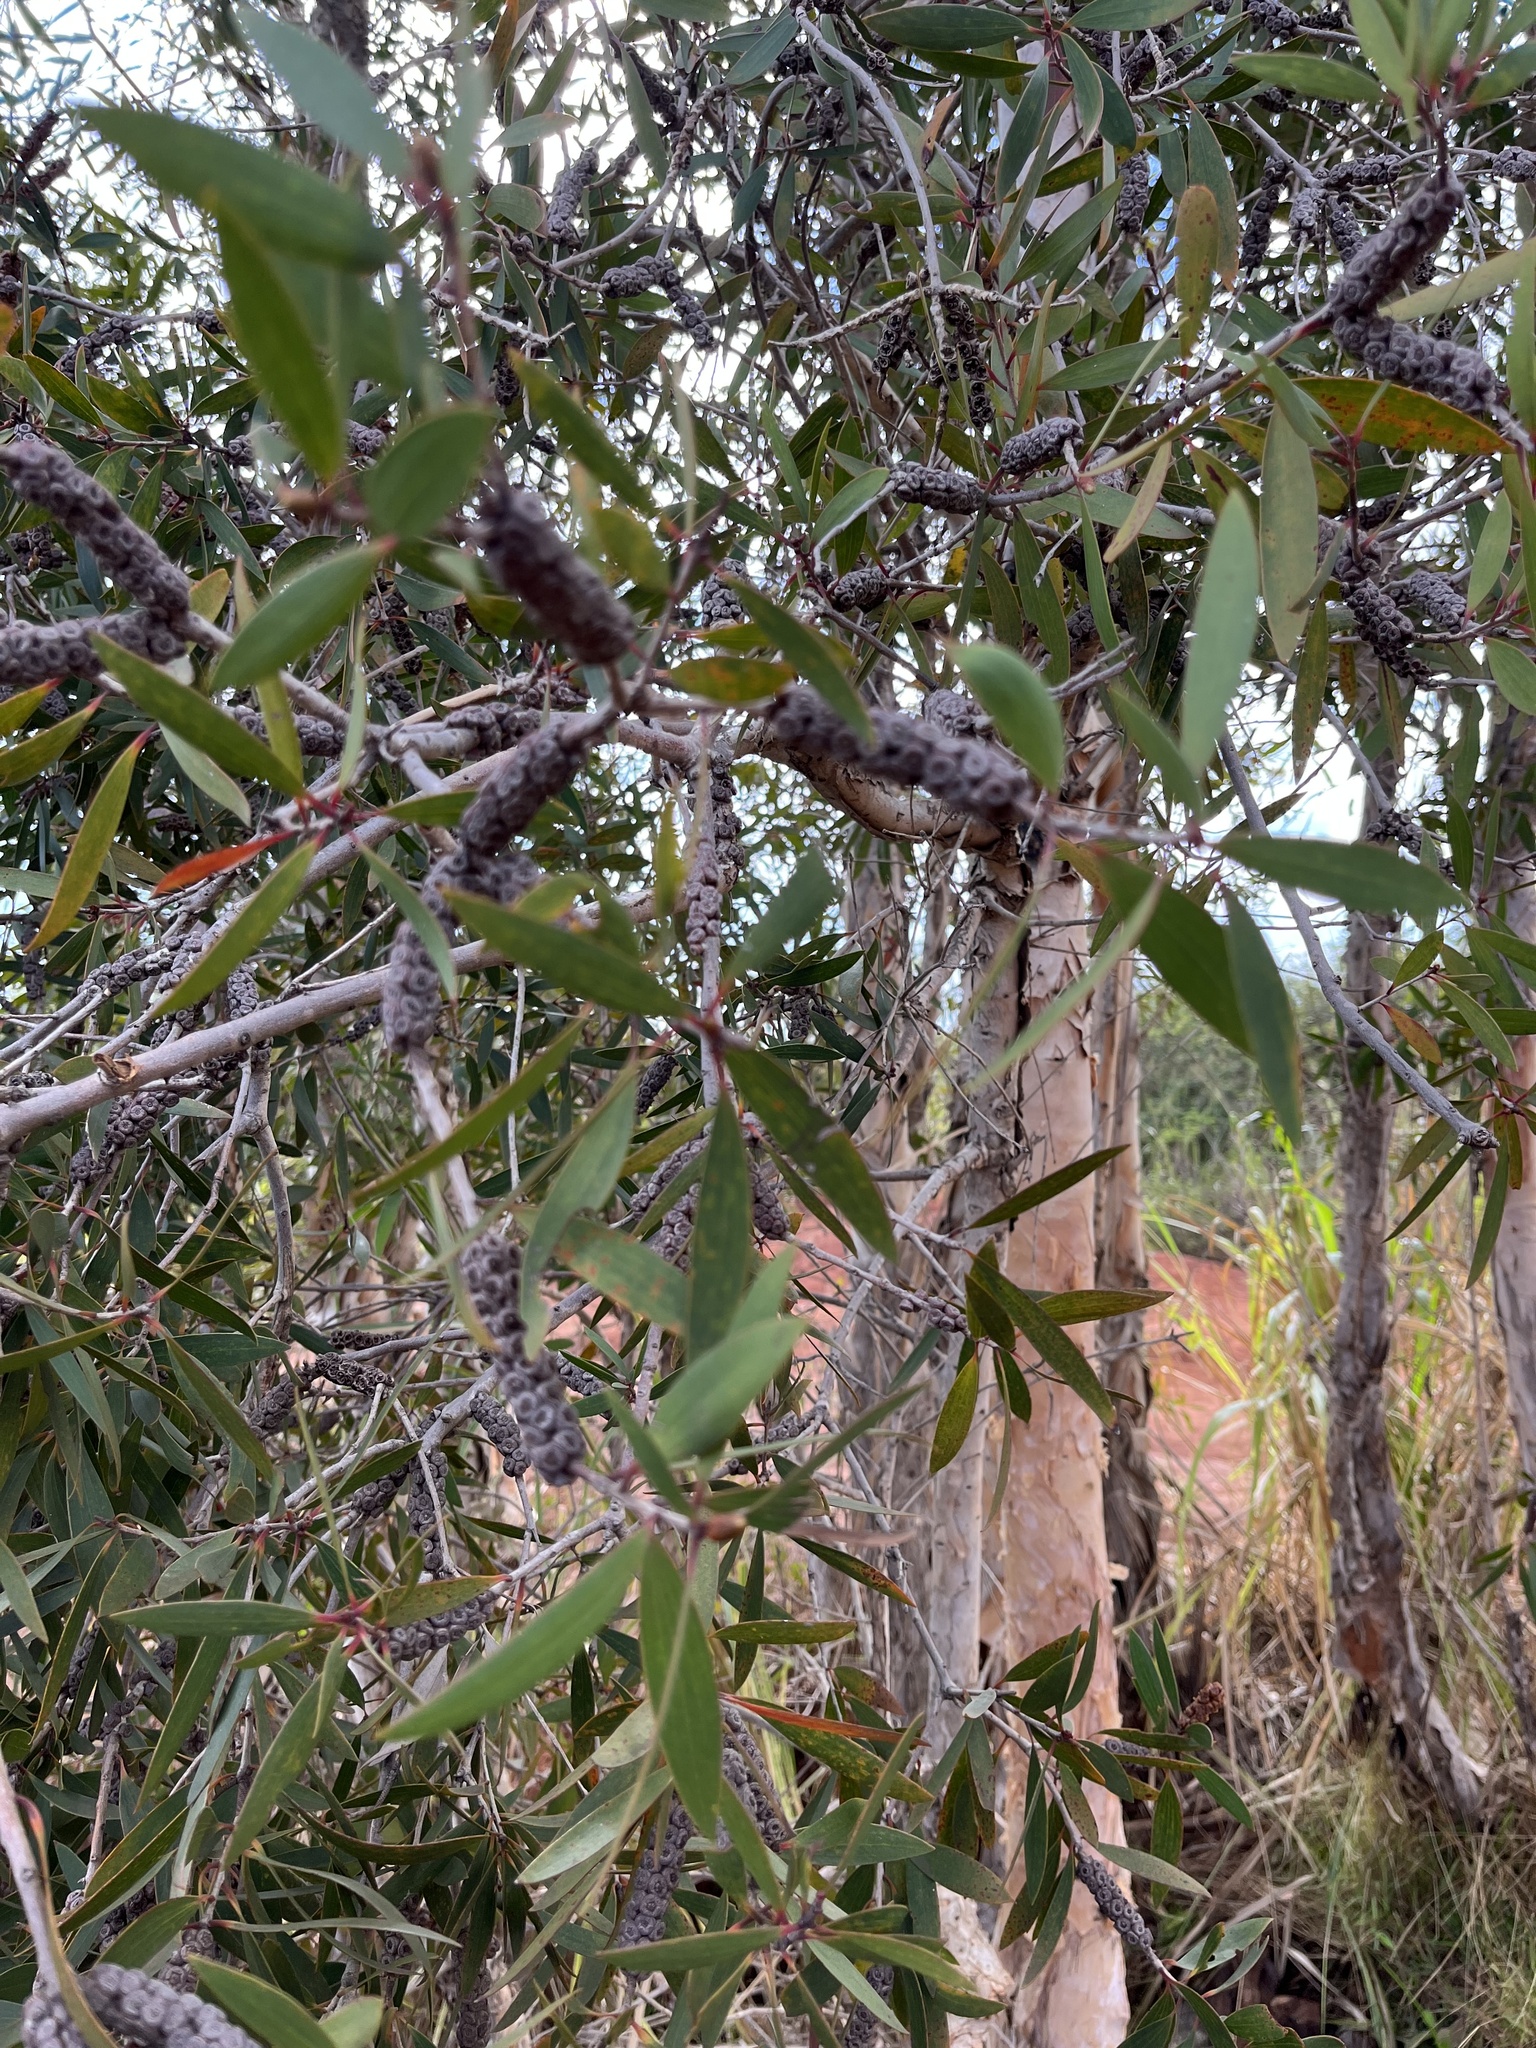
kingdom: Plantae
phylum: Tracheophyta
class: Magnoliopsida
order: Myrtales
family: Myrtaceae
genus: Melaleuca
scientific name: Melaleuca quinquenervia
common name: Punktree
